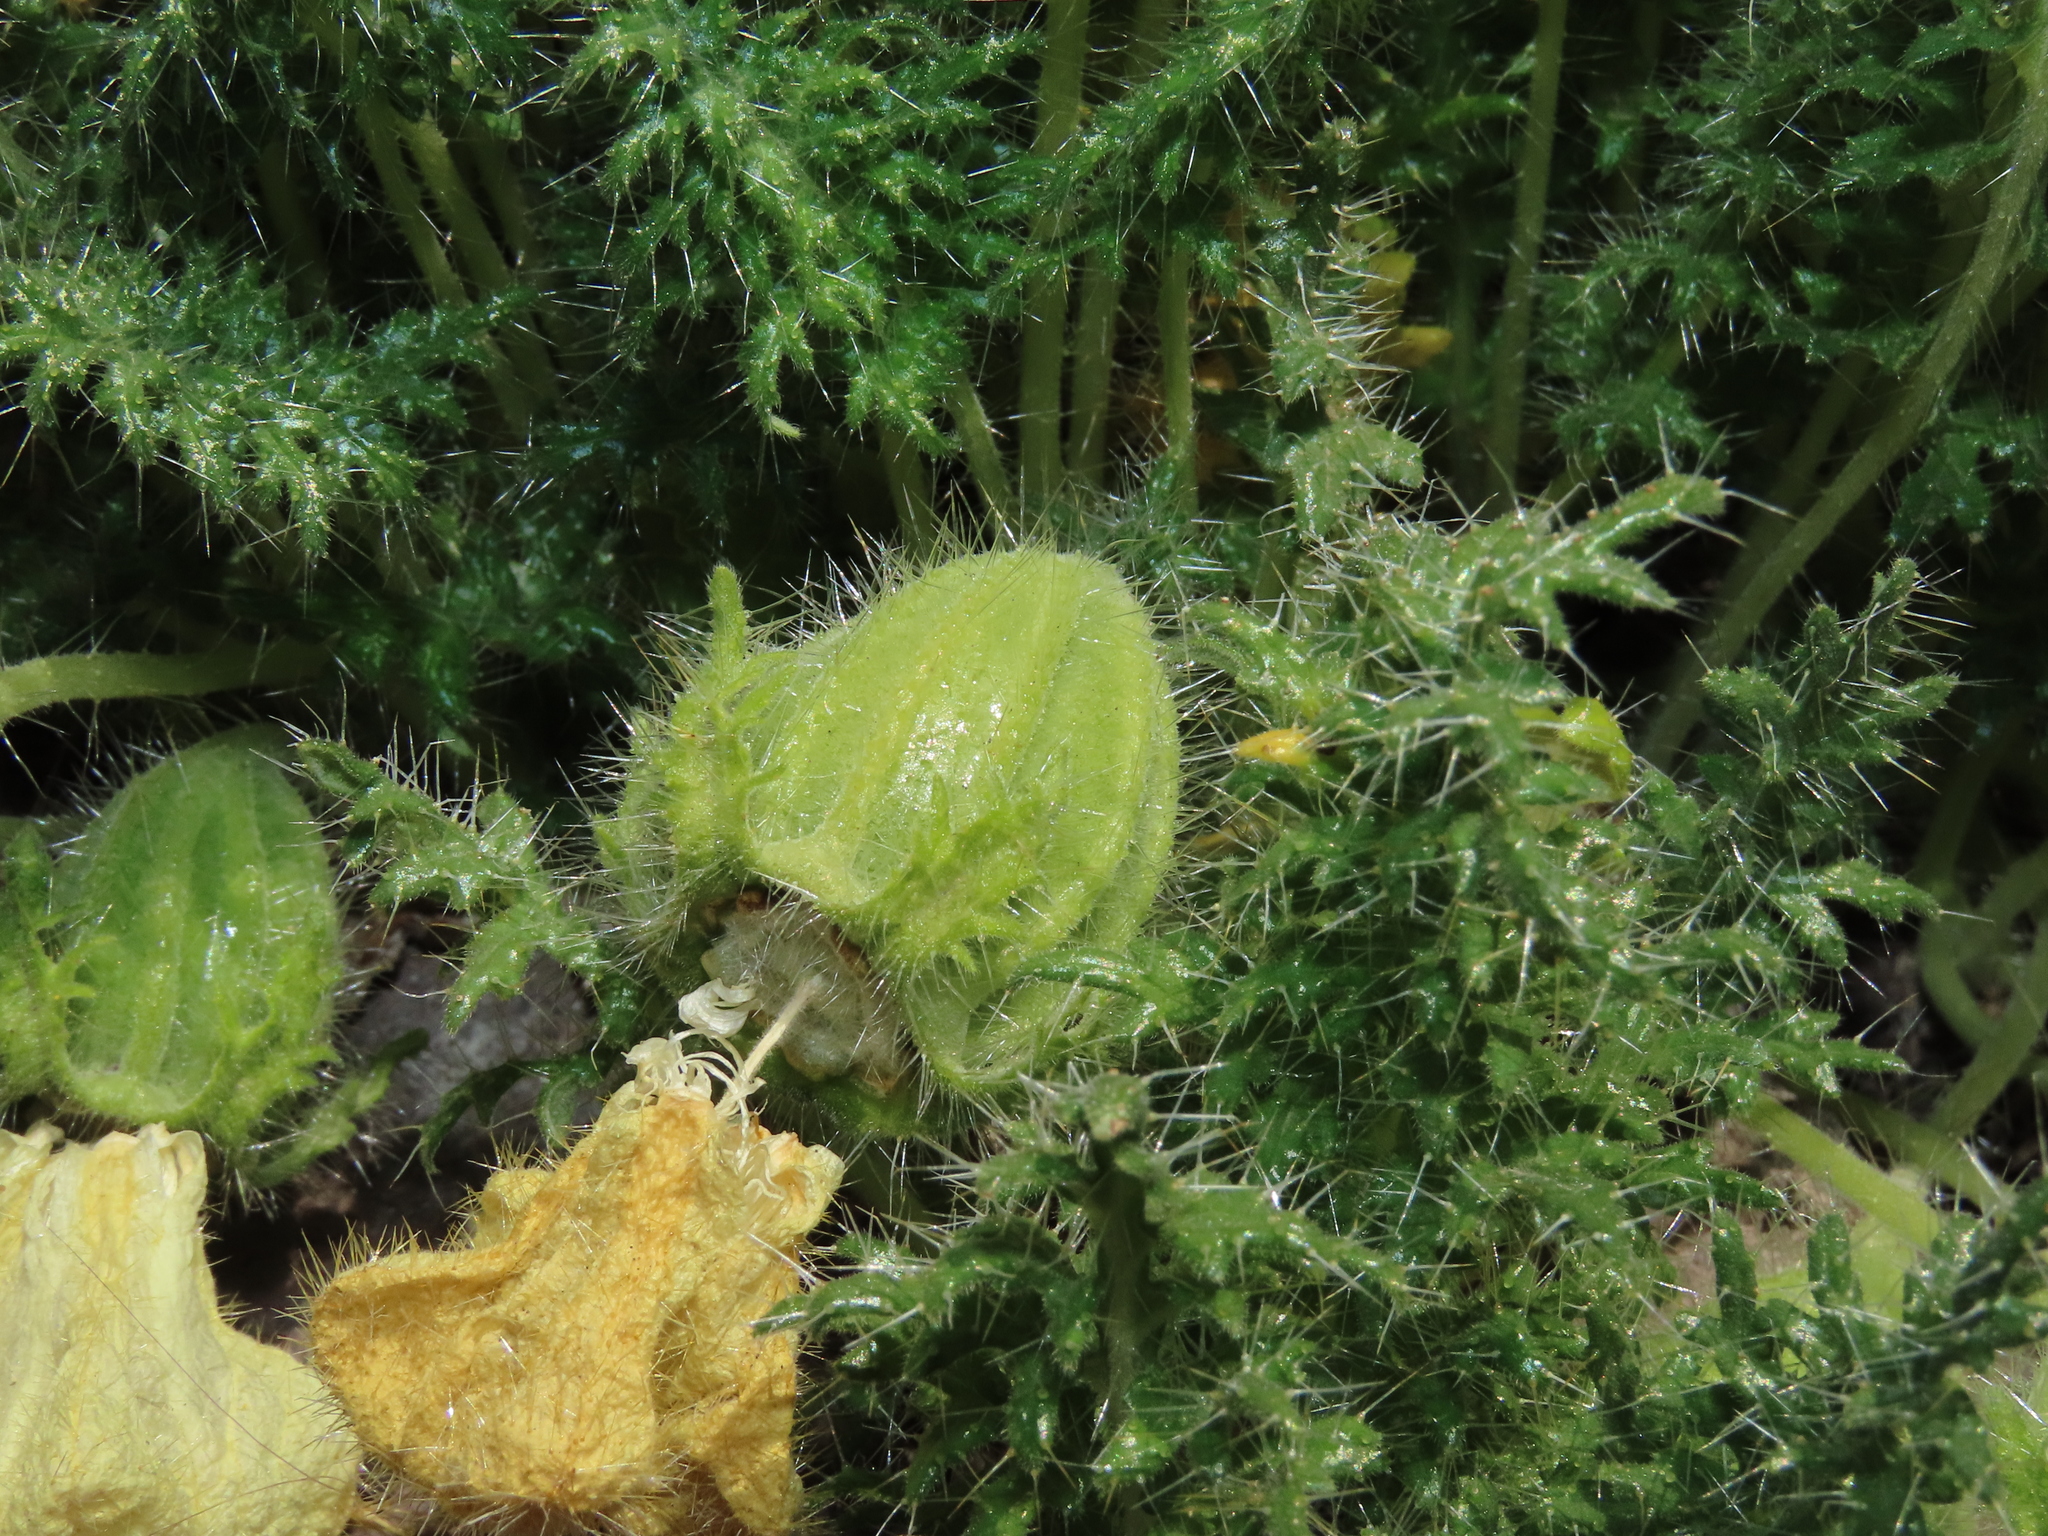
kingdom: Plantae
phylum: Tracheophyta
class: Magnoliopsida
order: Cornales
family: Loasaceae
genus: Caiophora
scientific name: Caiophora coronata
